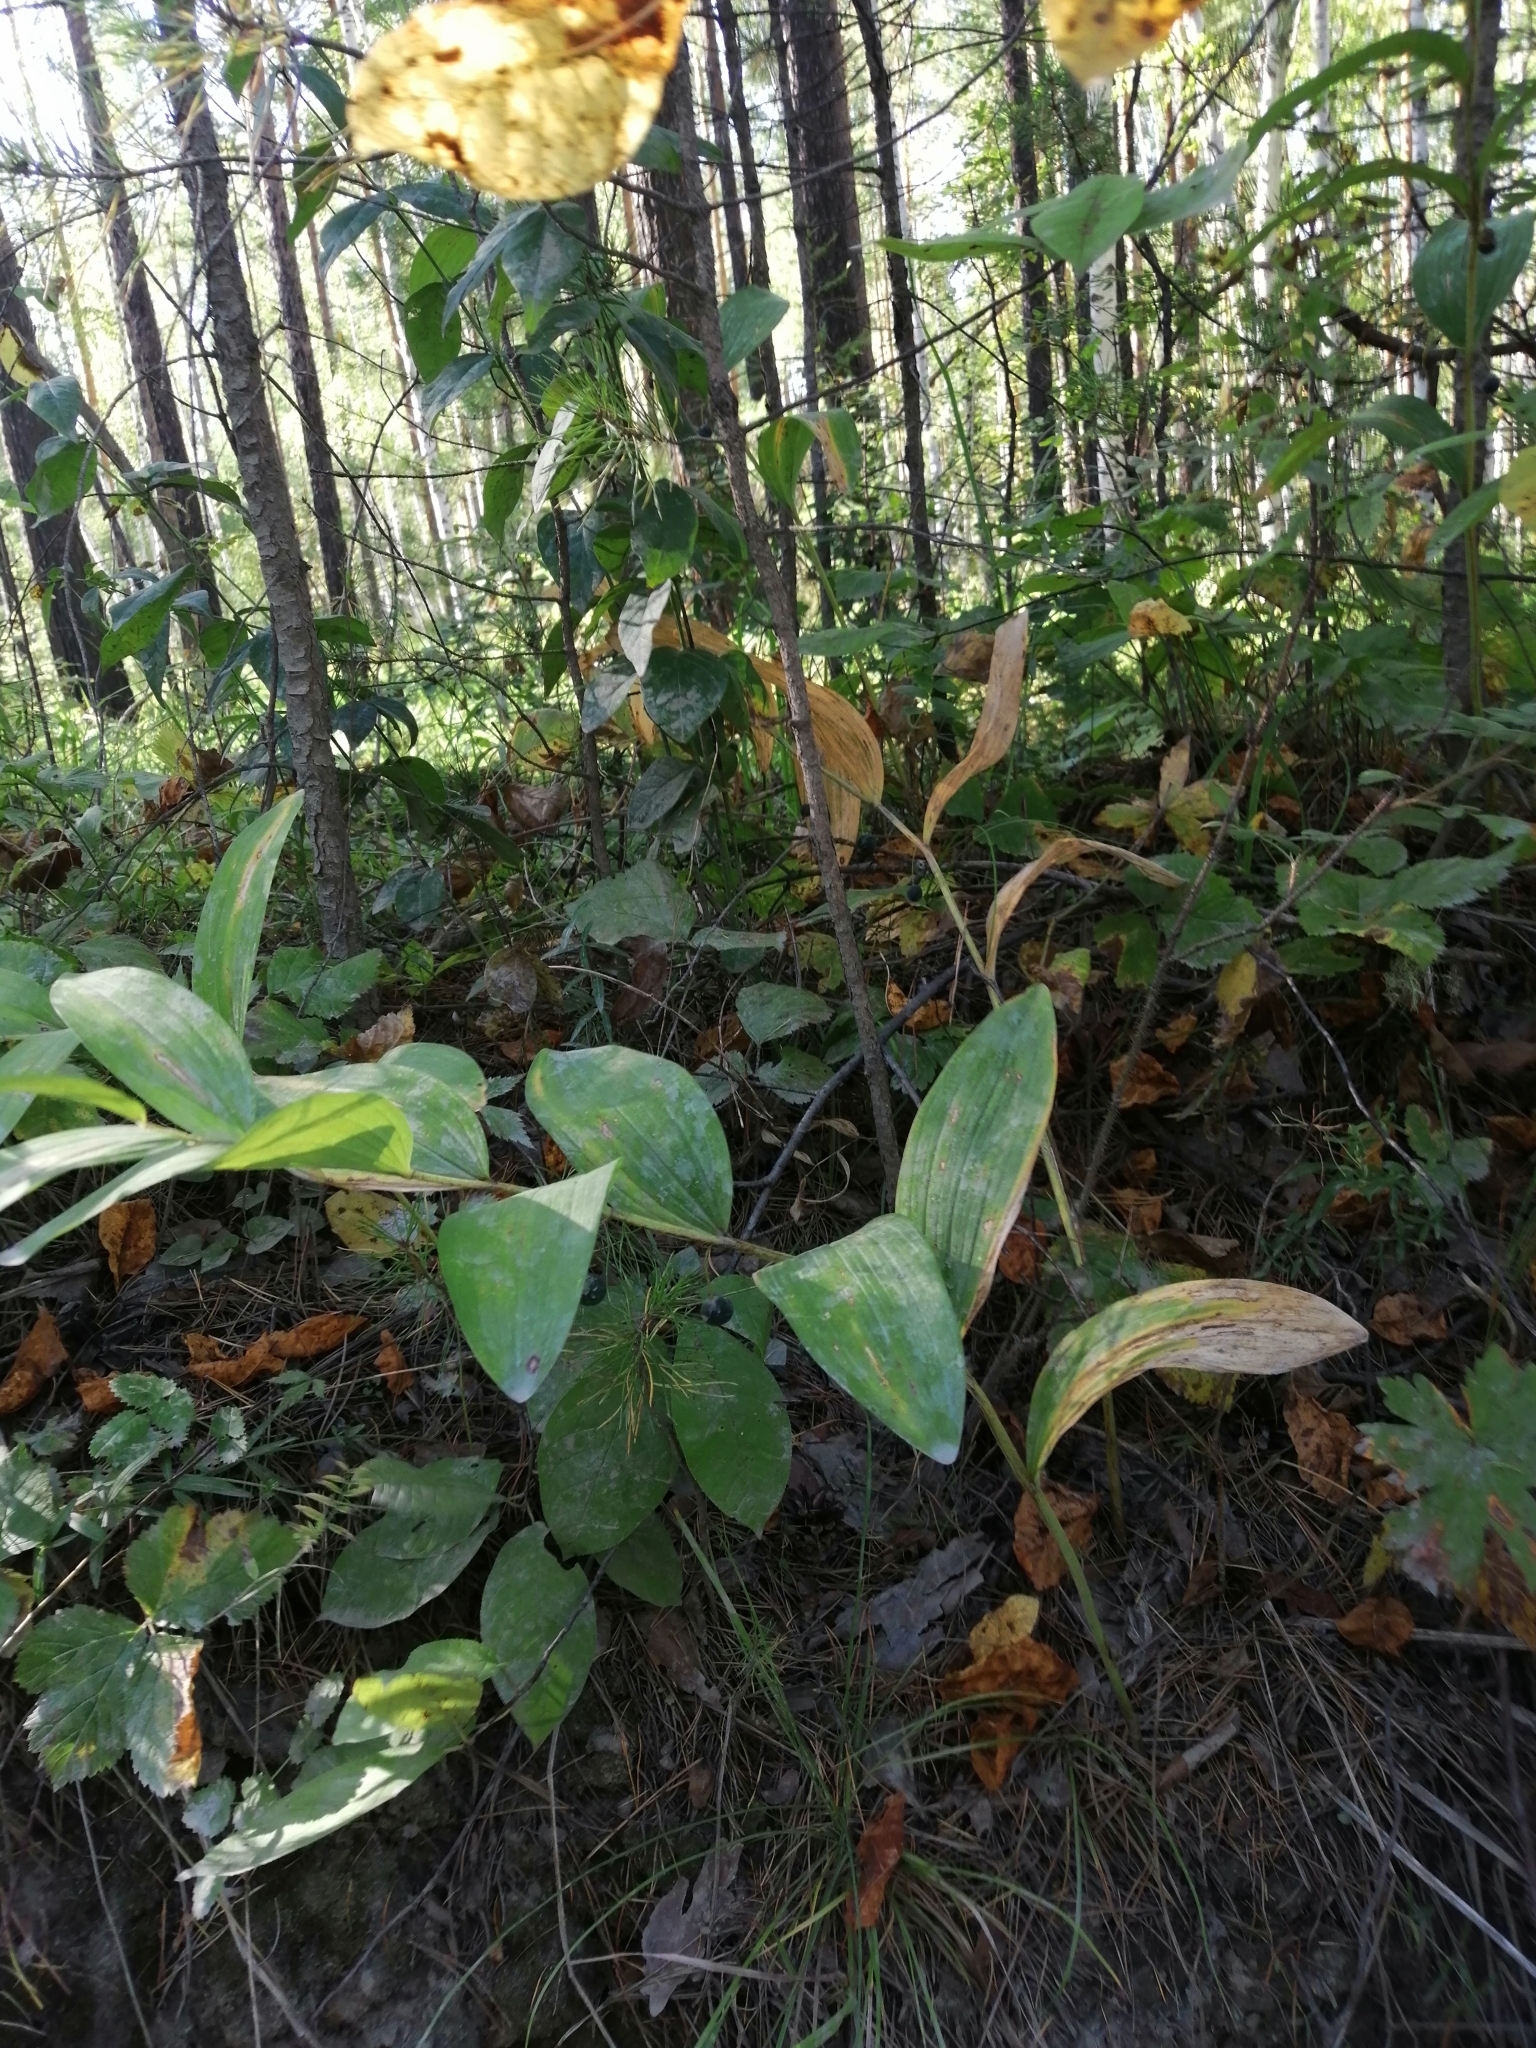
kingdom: Plantae
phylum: Tracheophyta
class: Liliopsida
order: Asparagales
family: Asparagaceae
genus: Polygonatum
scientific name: Polygonatum odoratum
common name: Angular solomon's-seal
